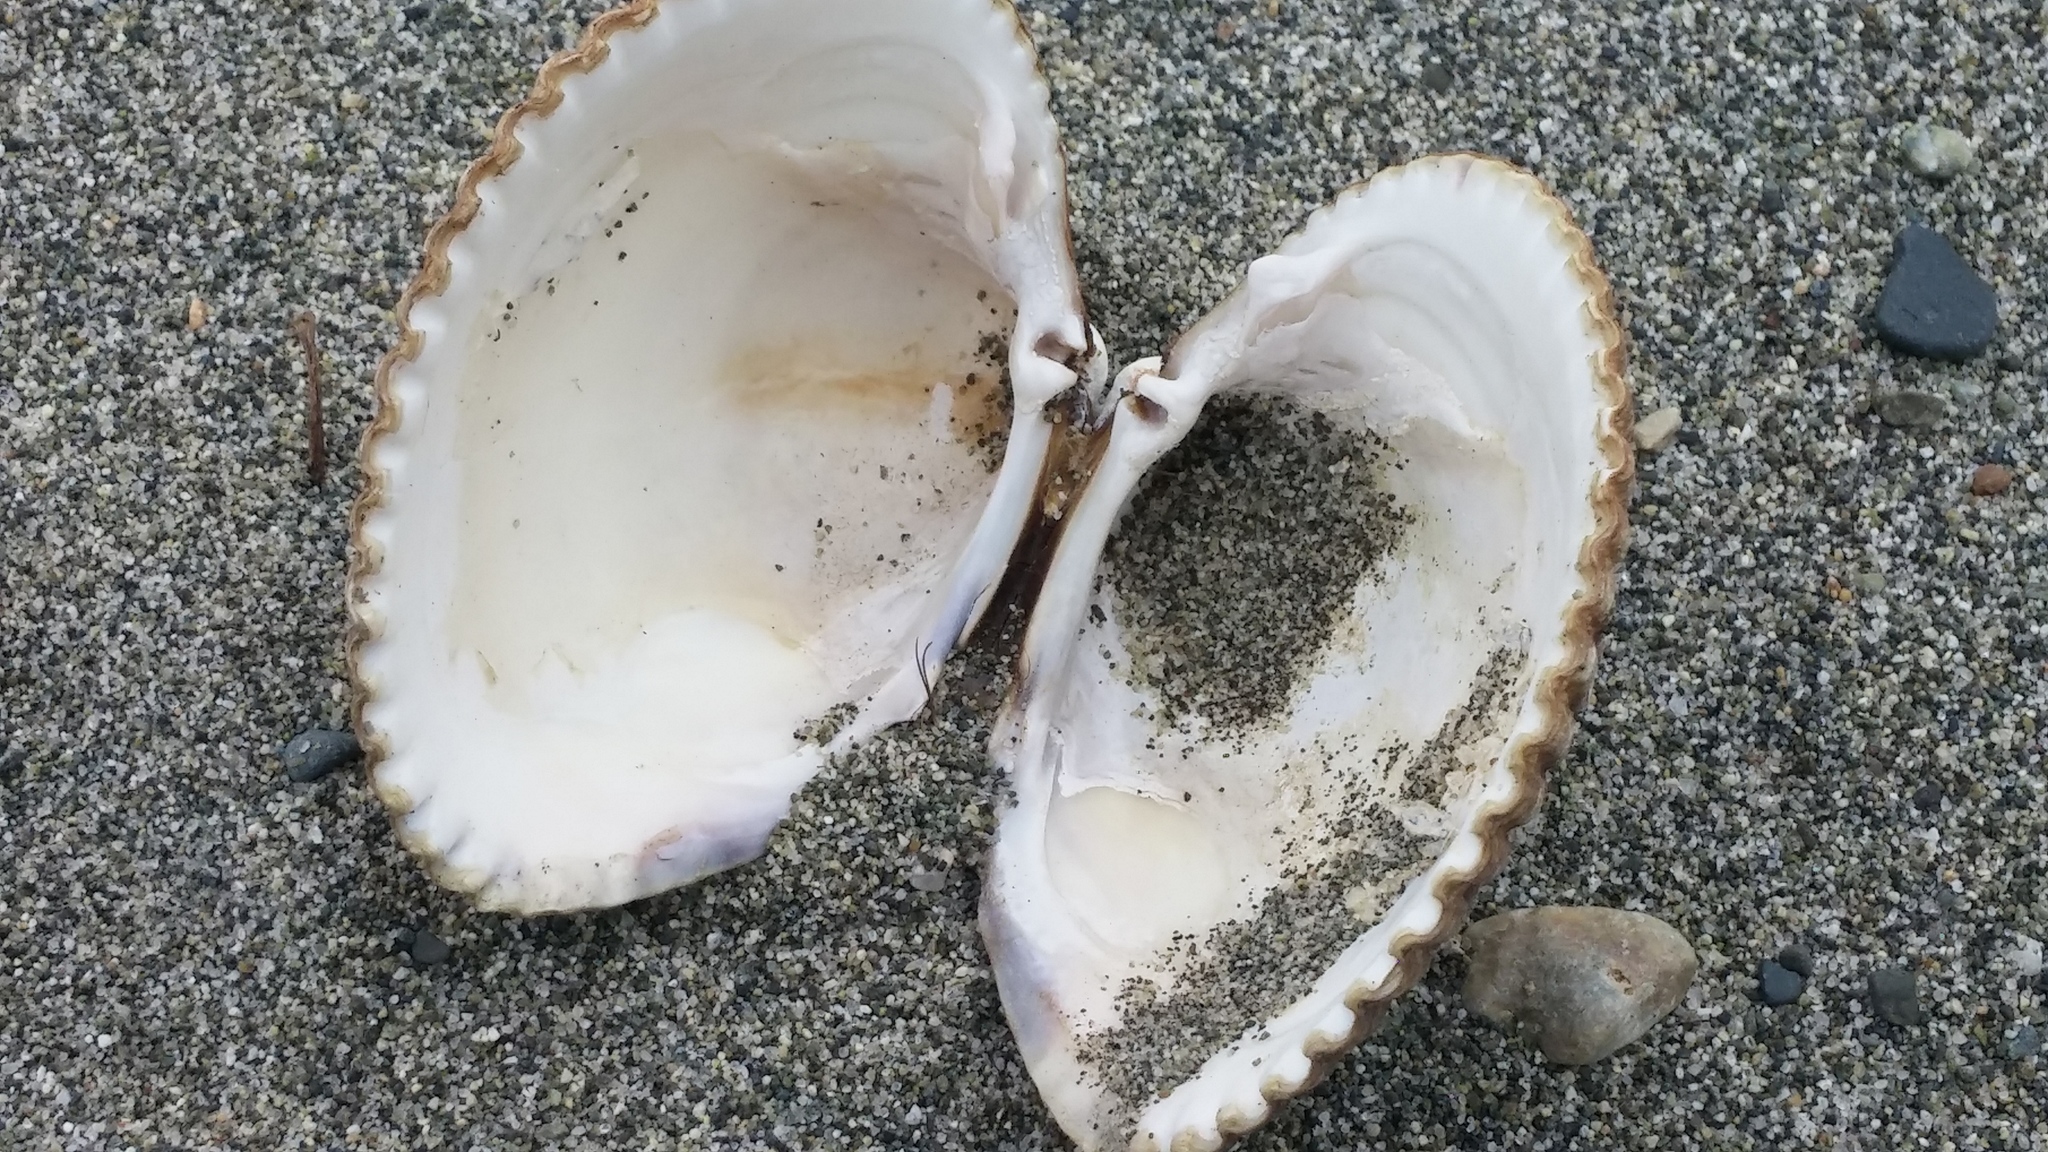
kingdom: Animalia
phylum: Mollusca
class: Bivalvia
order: Cardiida
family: Cardiidae
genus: Clinocardium
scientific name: Clinocardium nuttallii
